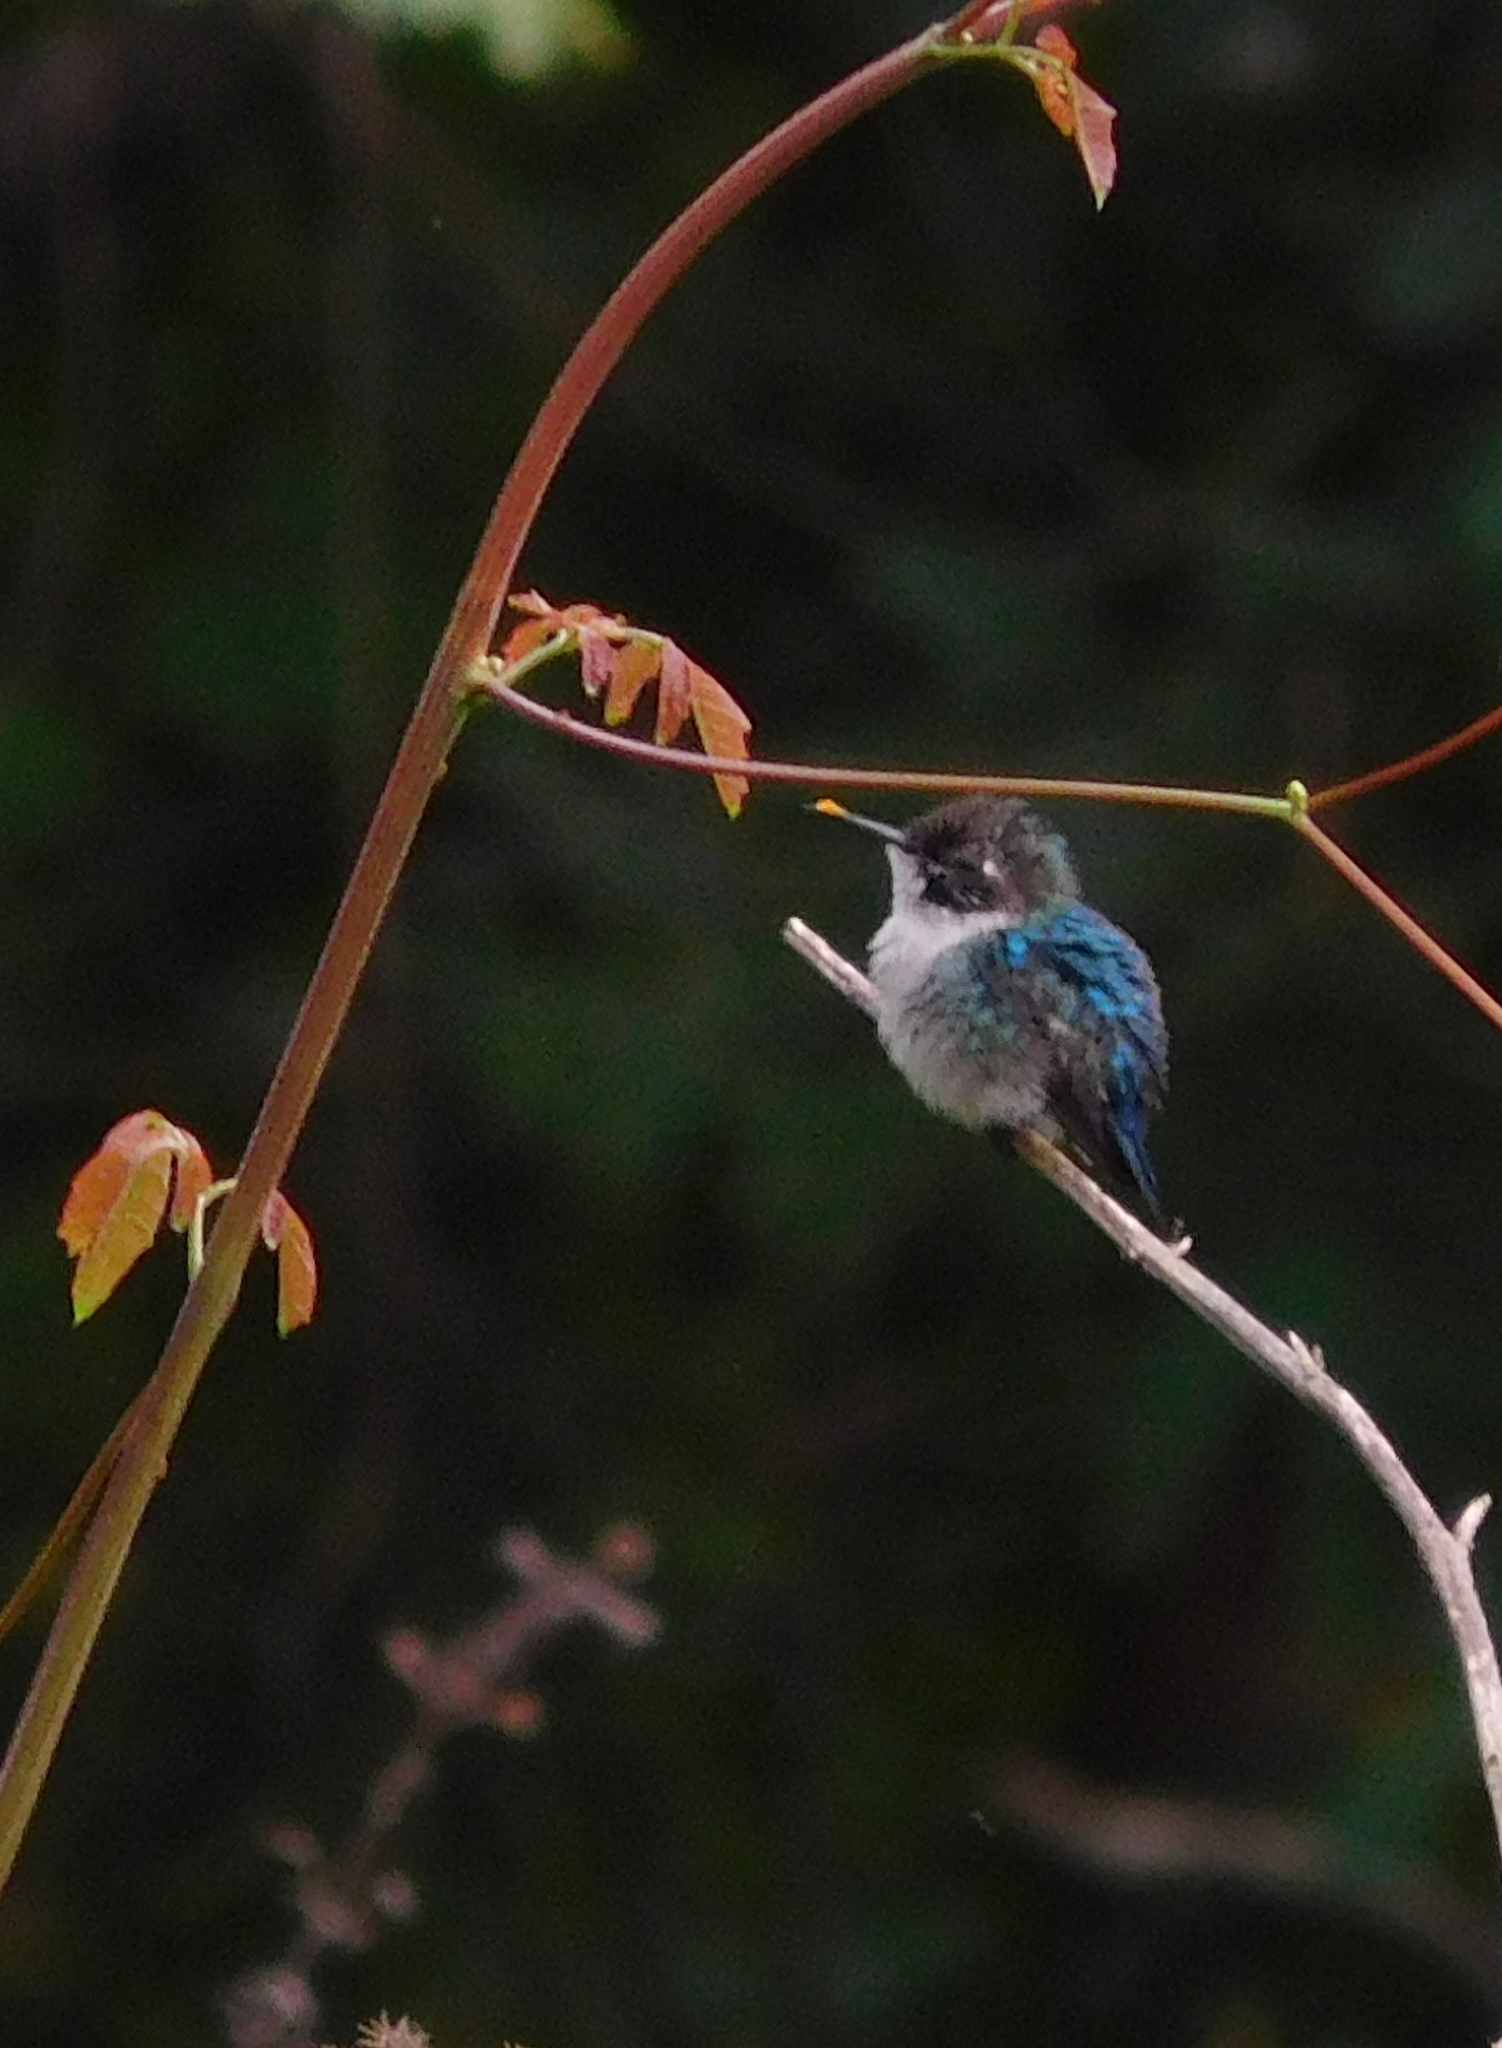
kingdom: Animalia
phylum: Chordata
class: Aves
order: Apodiformes
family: Trochilidae
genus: Mellisuga
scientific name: Mellisuga helenae
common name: Bee hummingbird
